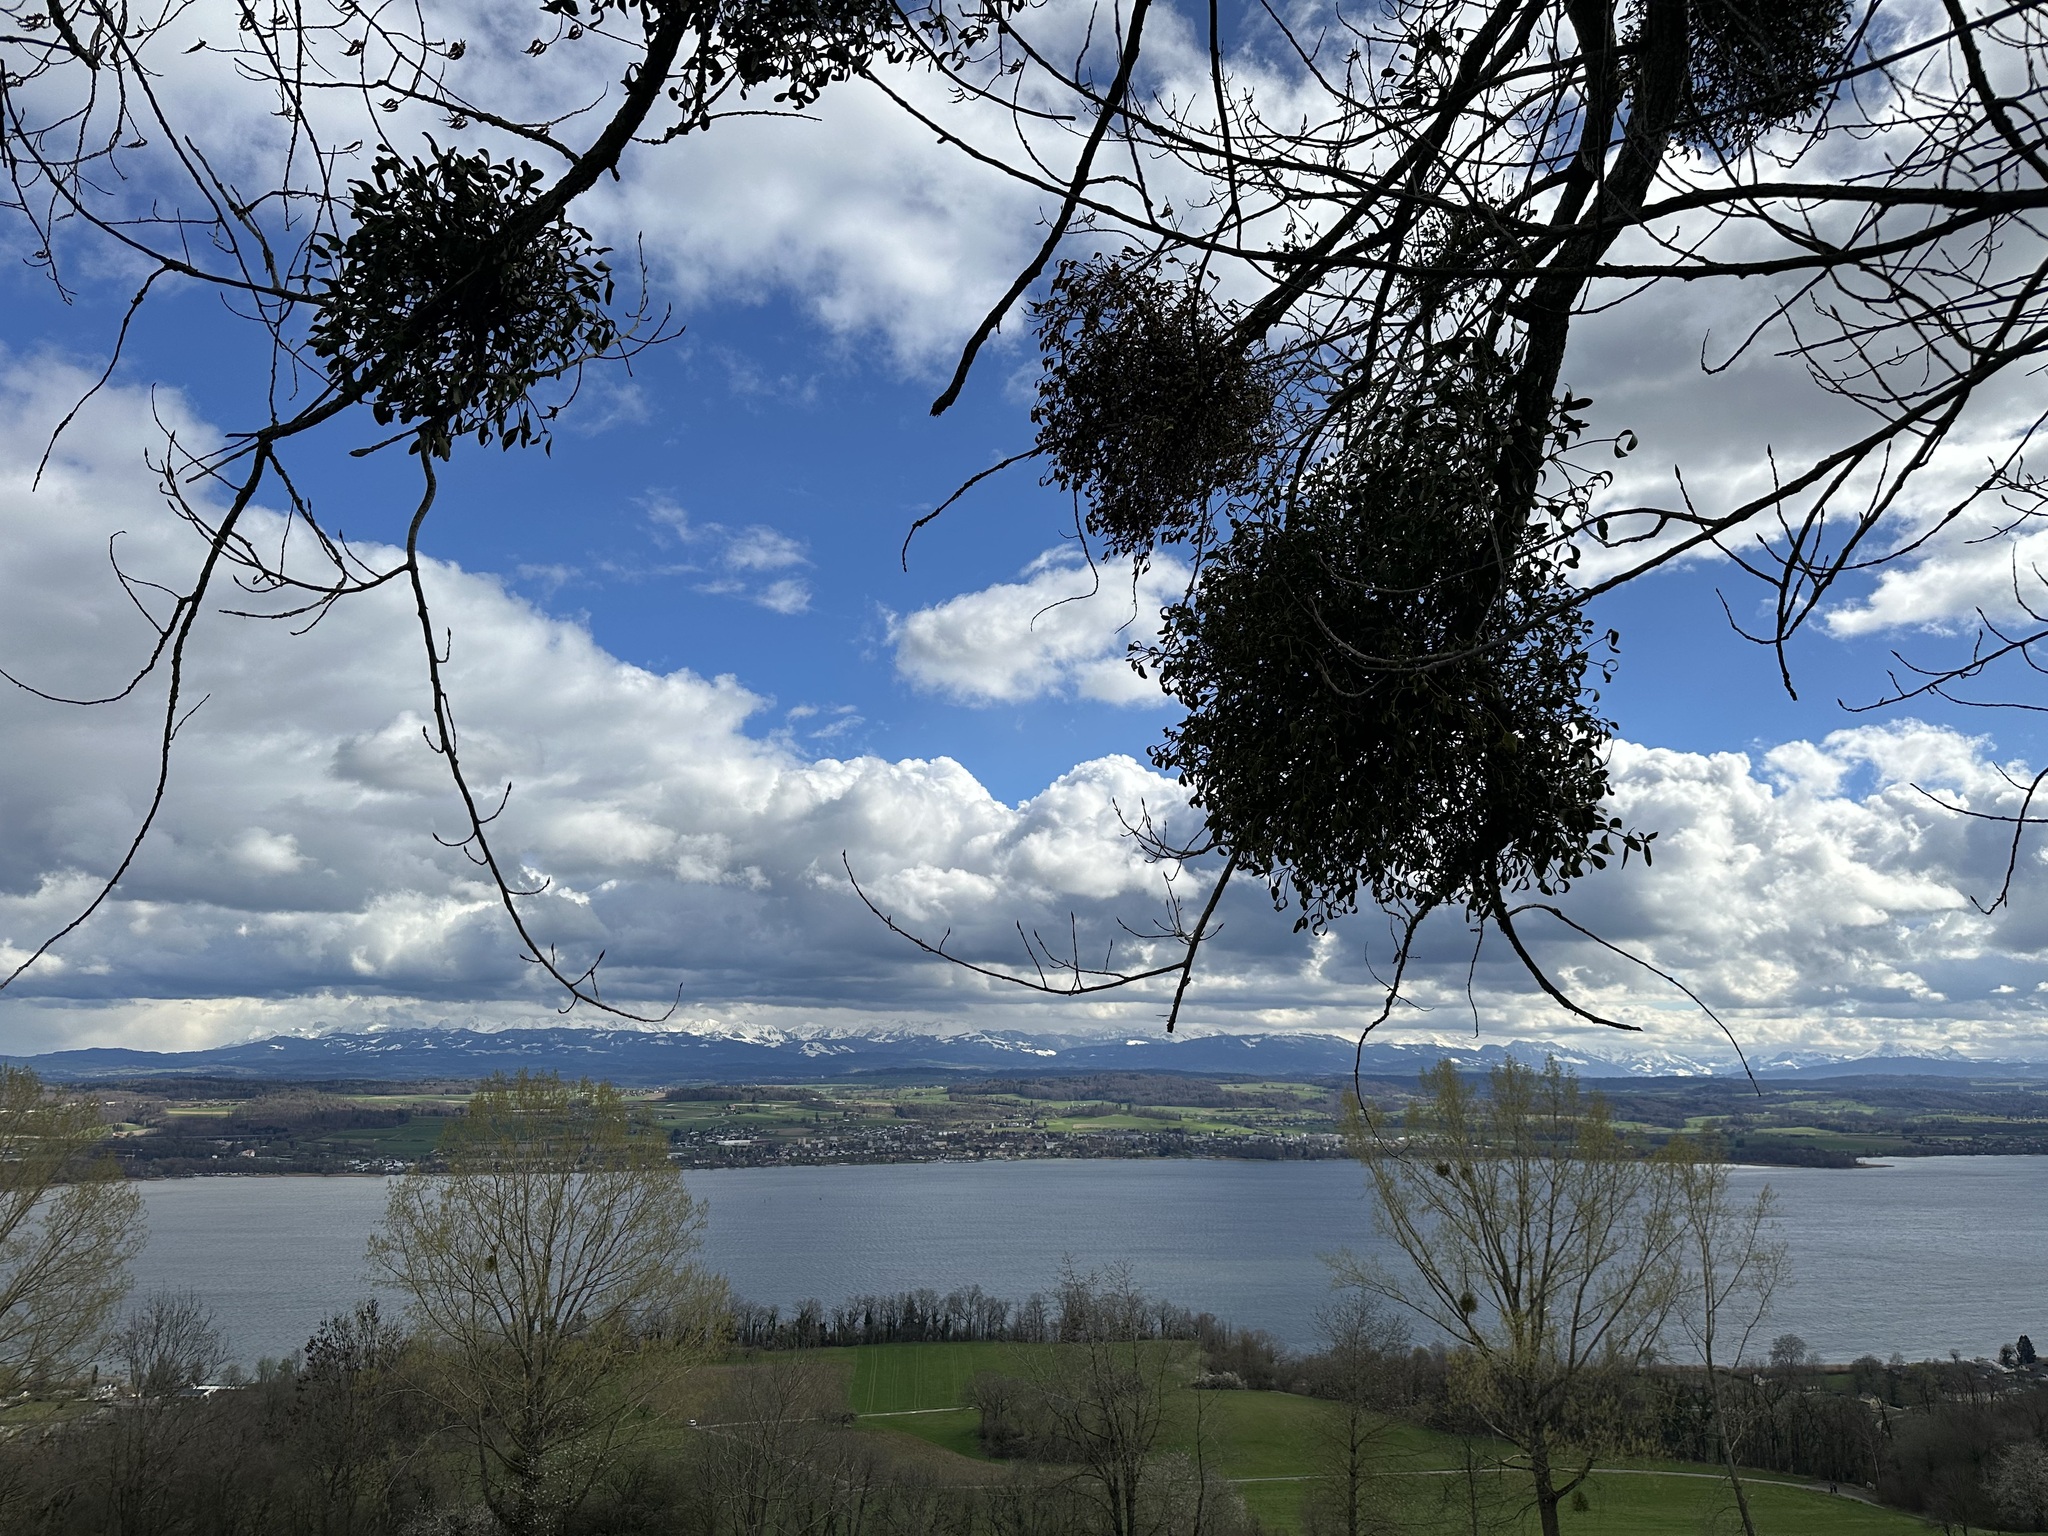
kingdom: Plantae
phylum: Tracheophyta
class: Magnoliopsida
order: Santalales
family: Viscaceae
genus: Viscum
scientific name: Viscum album
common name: Mistletoe
